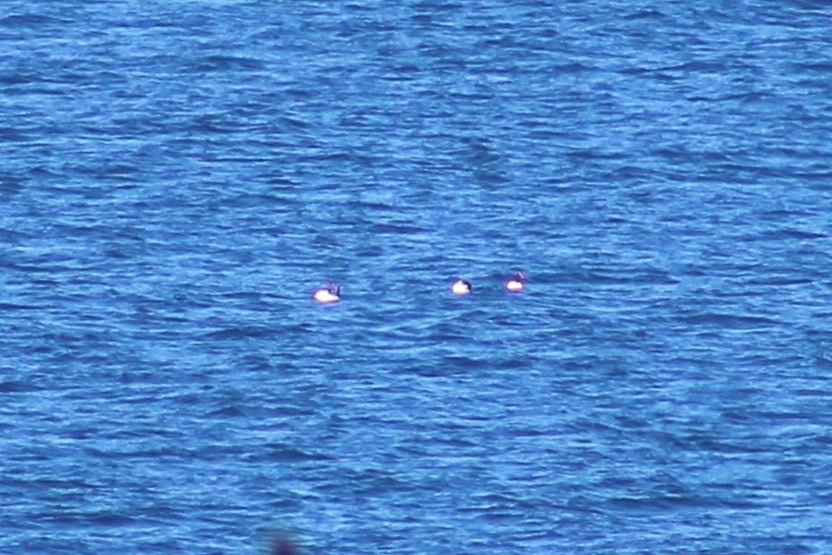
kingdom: Animalia
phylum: Chordata
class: Aves
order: Anseriformes
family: Anatidae
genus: Cygnus
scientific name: Cygnus melancoryphus
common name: Black-necked swan
